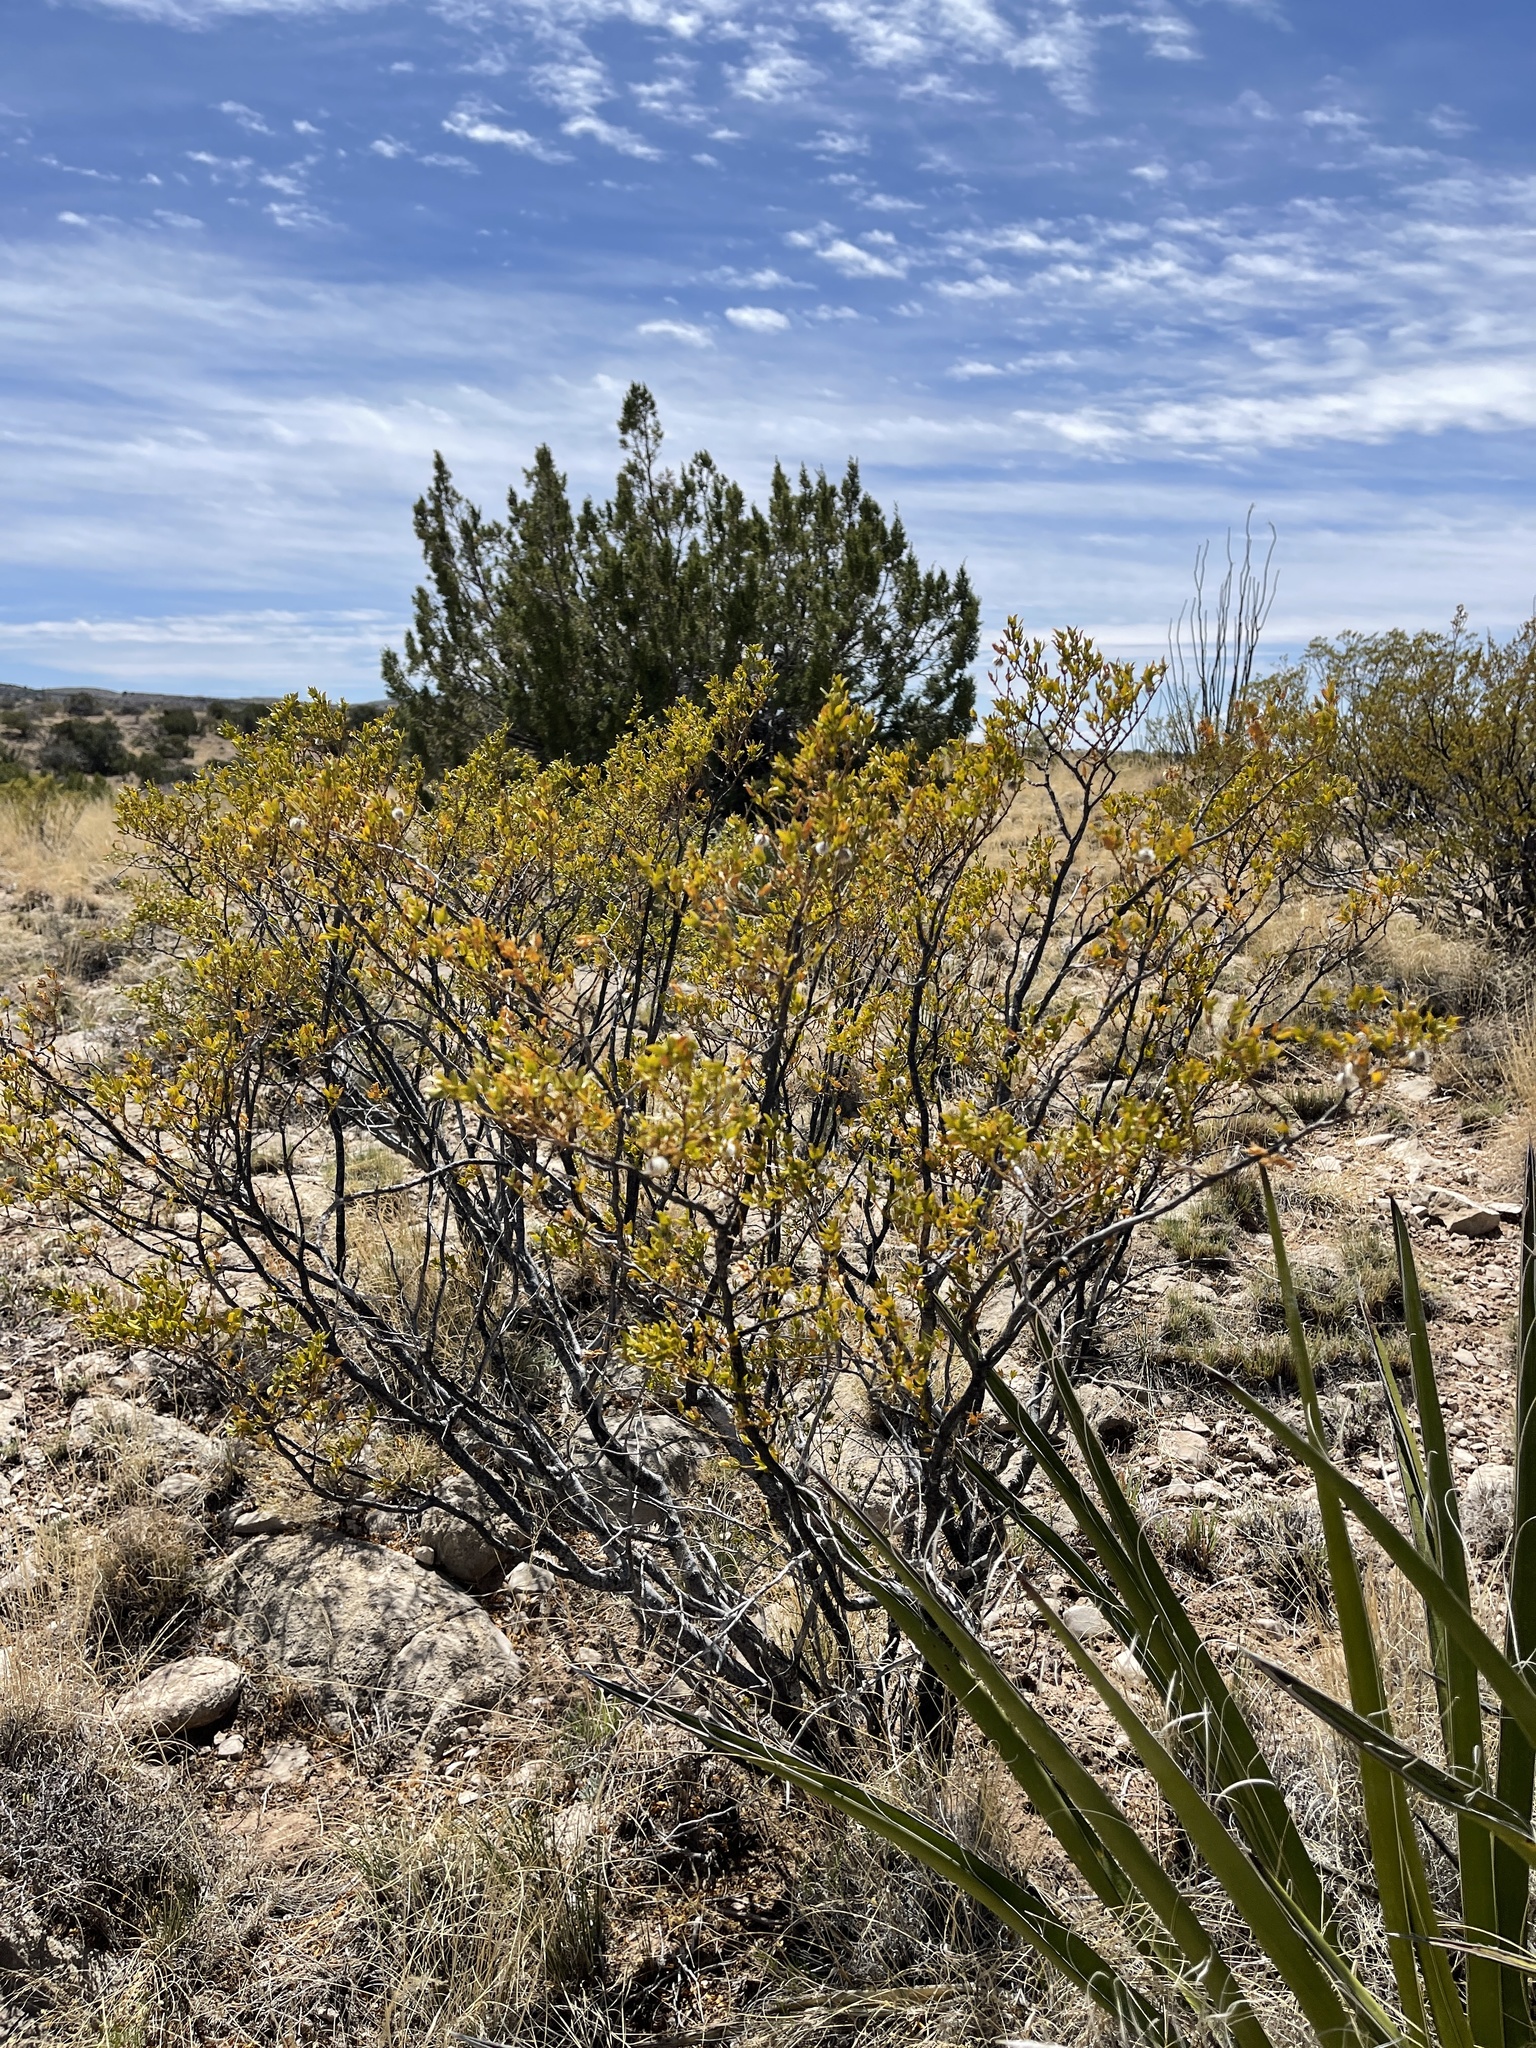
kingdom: Plantae
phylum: Tracheophyta
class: Magnoliopsida
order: Zygophyllales
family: Zygophyllaceae
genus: Larrea
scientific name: Larrea tridentata
